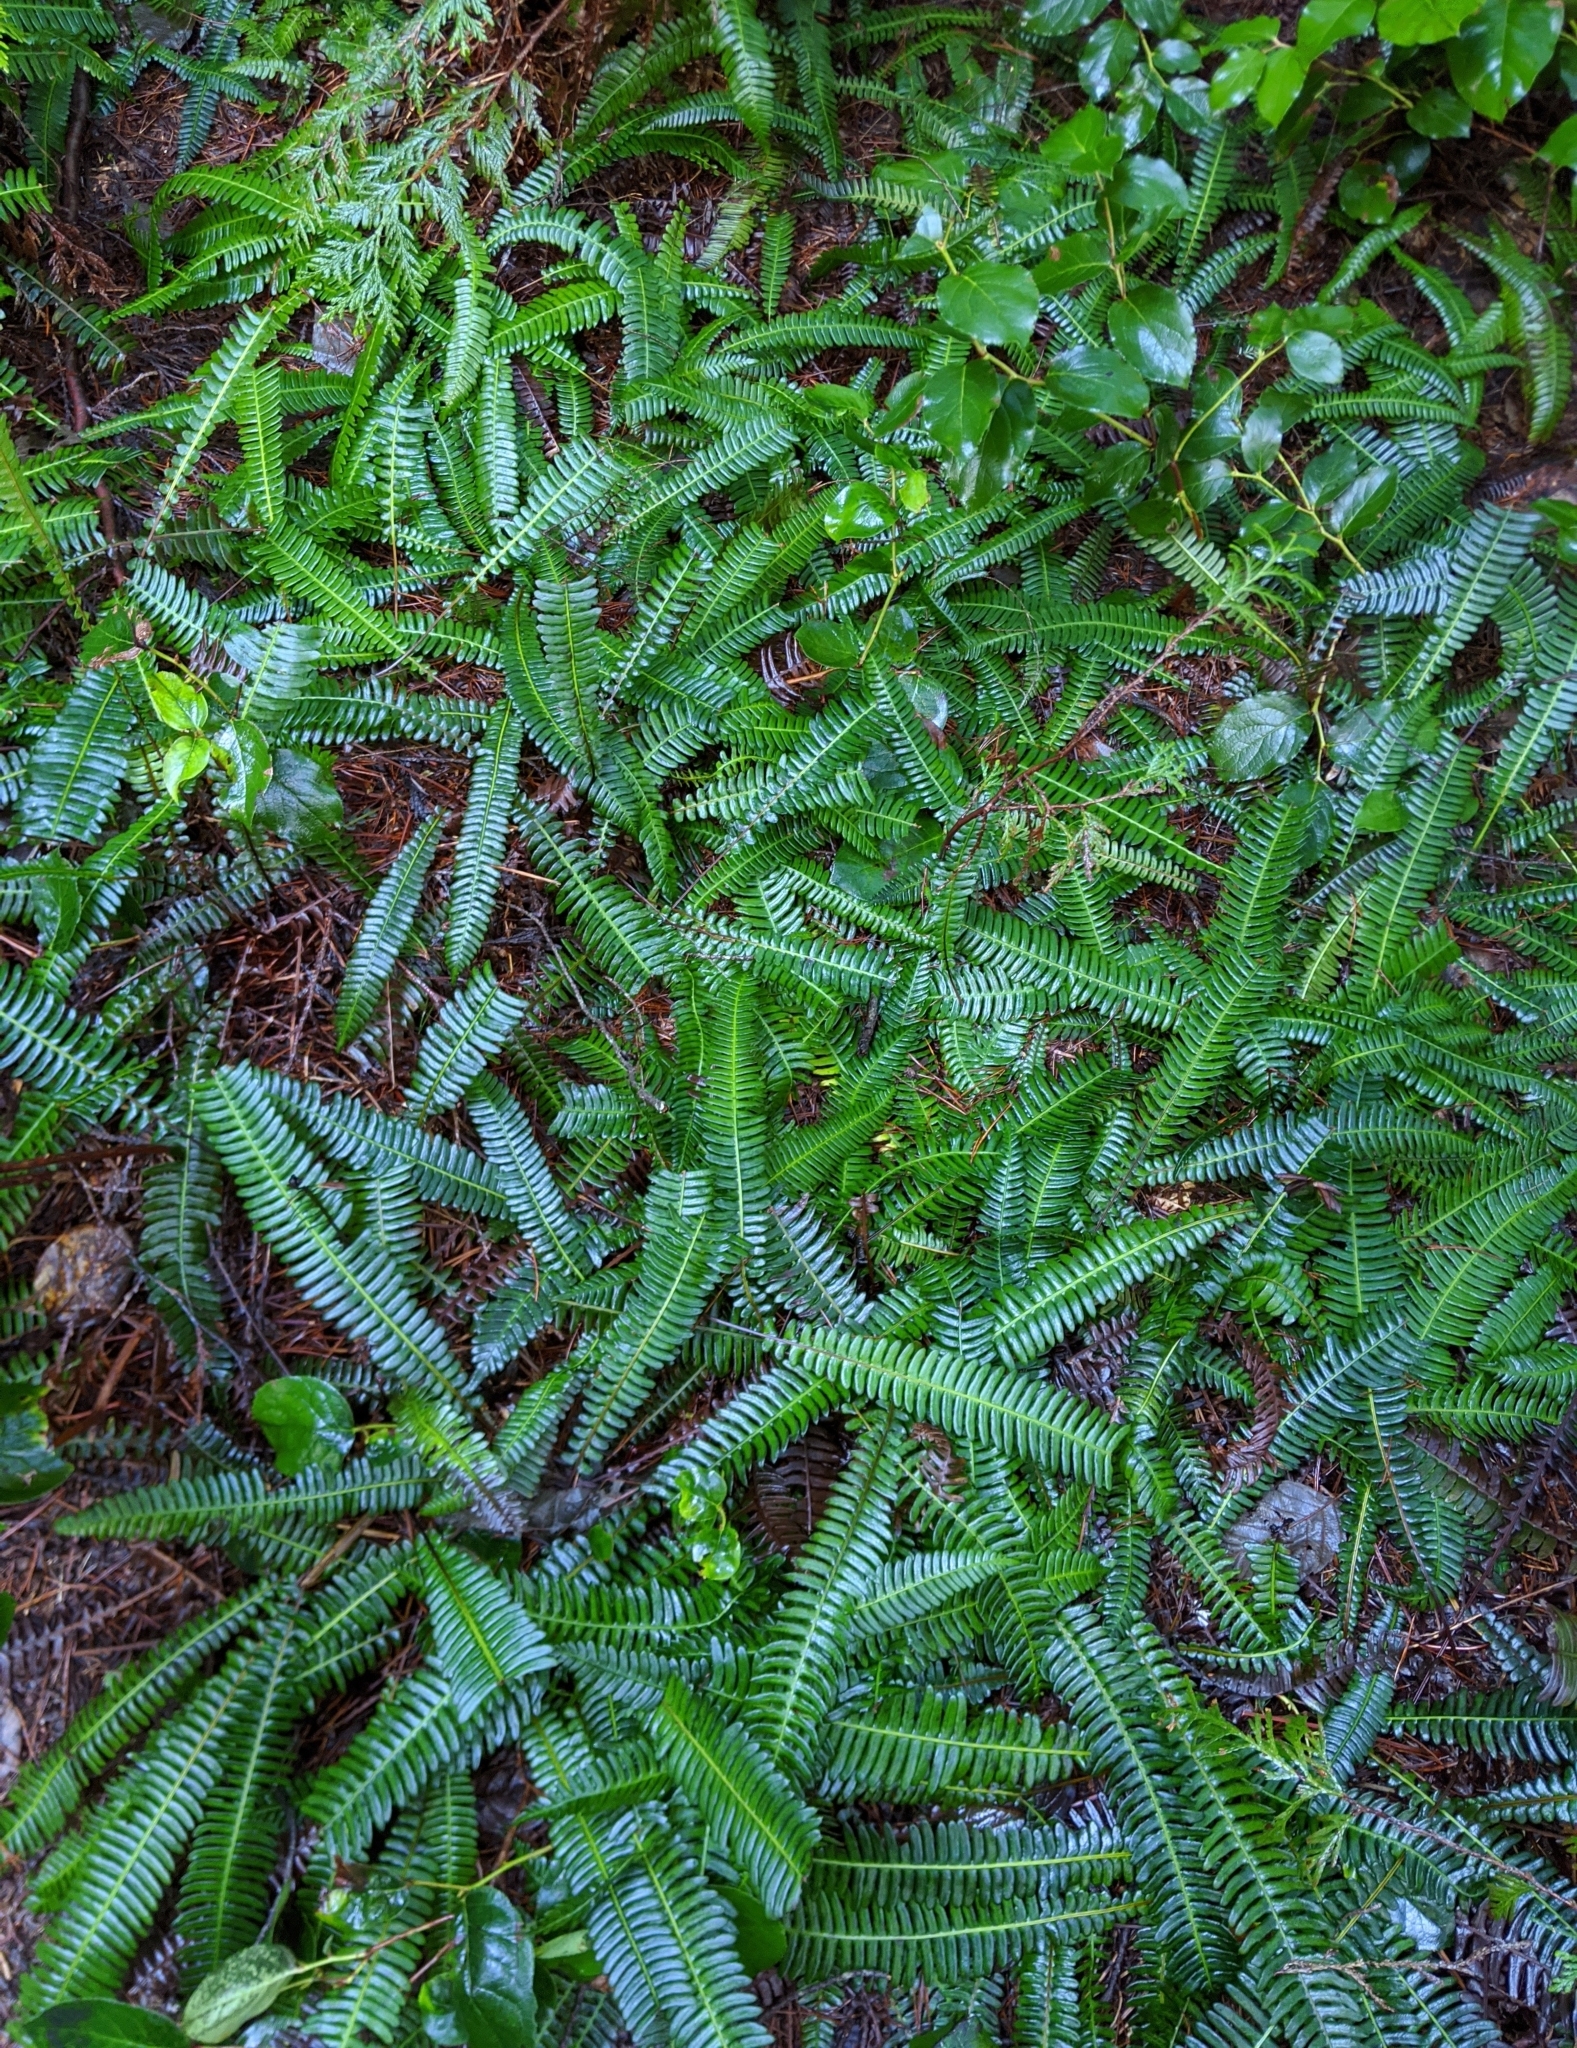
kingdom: Plantae
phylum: Tracheophyta
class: Polypodiopsida
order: Polypodiales
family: Blechnaceae
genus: Struthiopteris
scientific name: Struthiopteris spicant
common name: Deer fern
